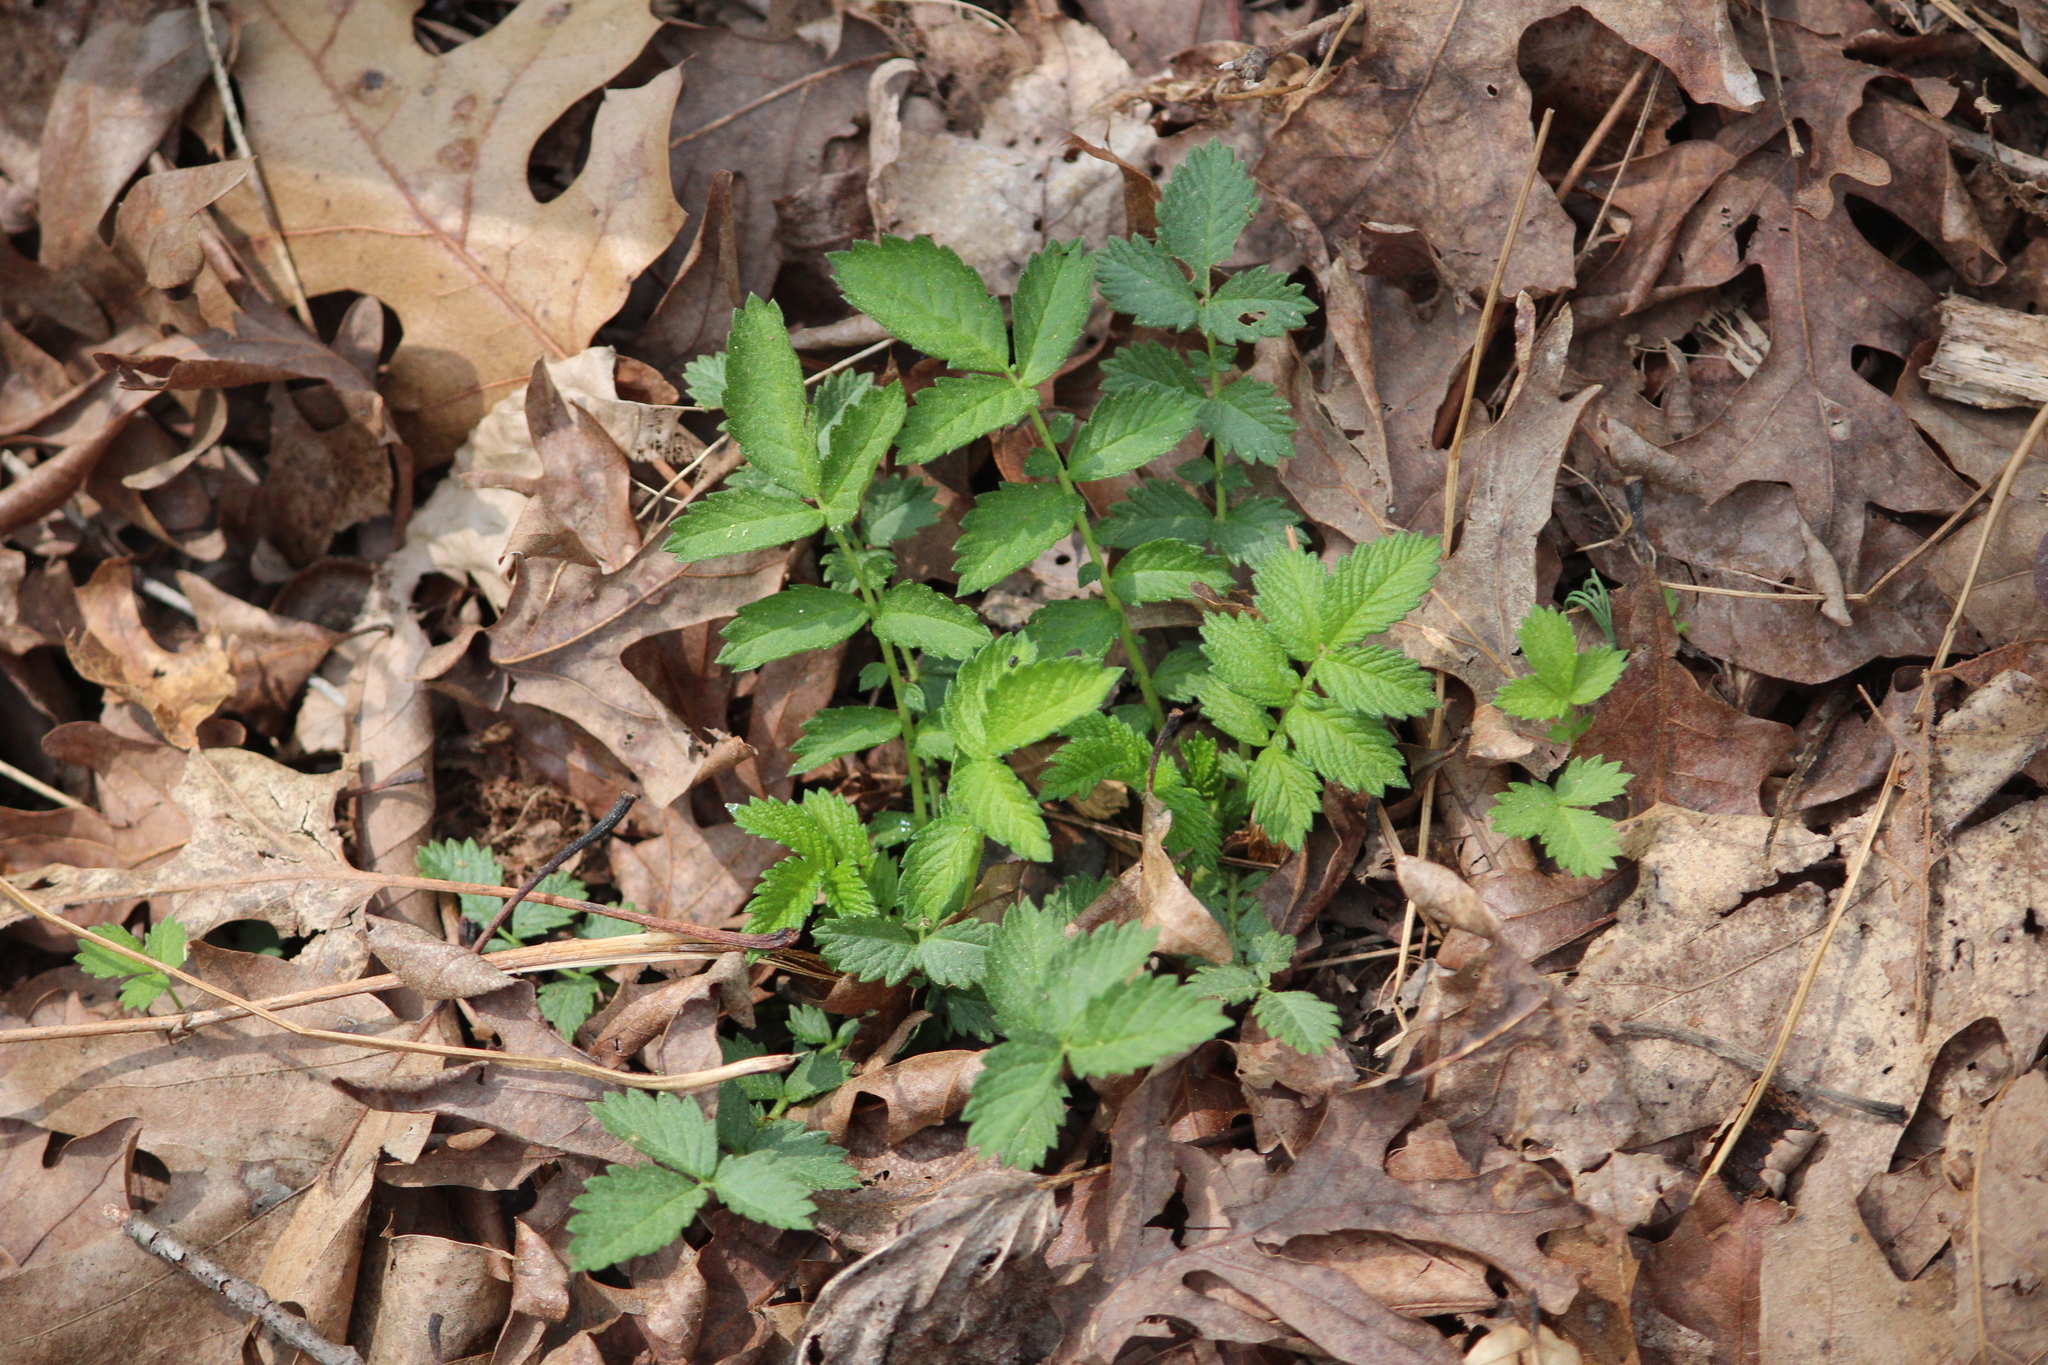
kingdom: Plantae
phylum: Tracheophyta
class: Magnoliopsida
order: Rosales
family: Rosaceae
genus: Agrimonia
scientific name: Agrimonia parviflora
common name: Harvest-lice
